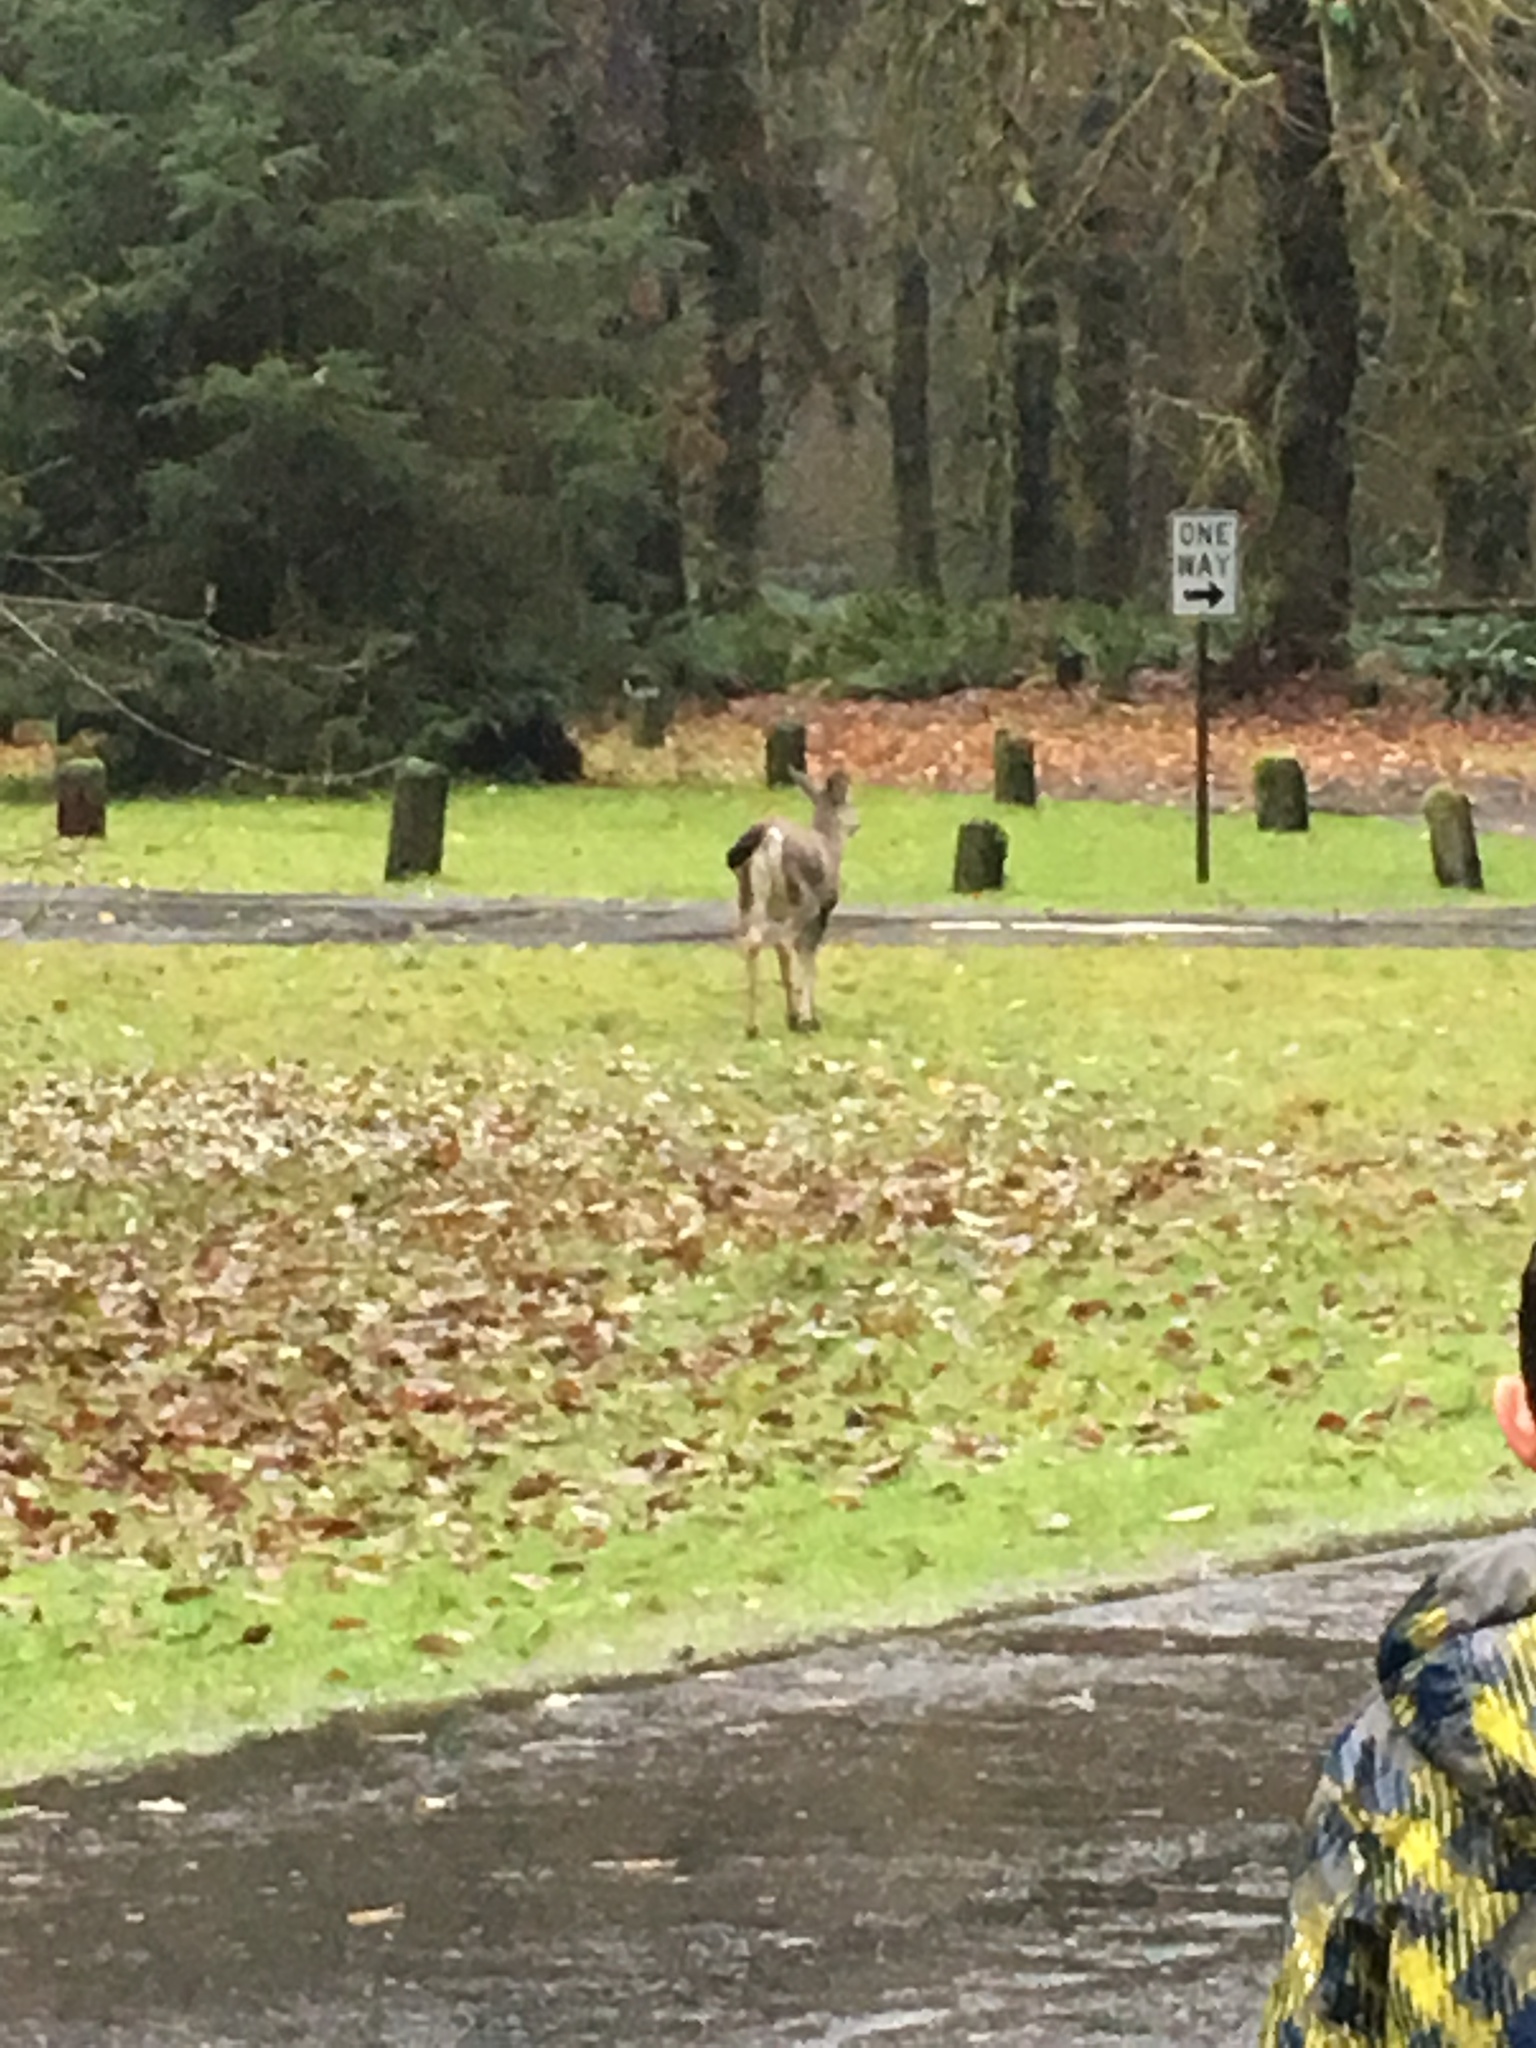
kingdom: Animalia
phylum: Chordata
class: Mammalia
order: Artiodactyla
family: Cervidae
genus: Odocoileus
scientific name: Odocoileus hemionus
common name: Mule deer
